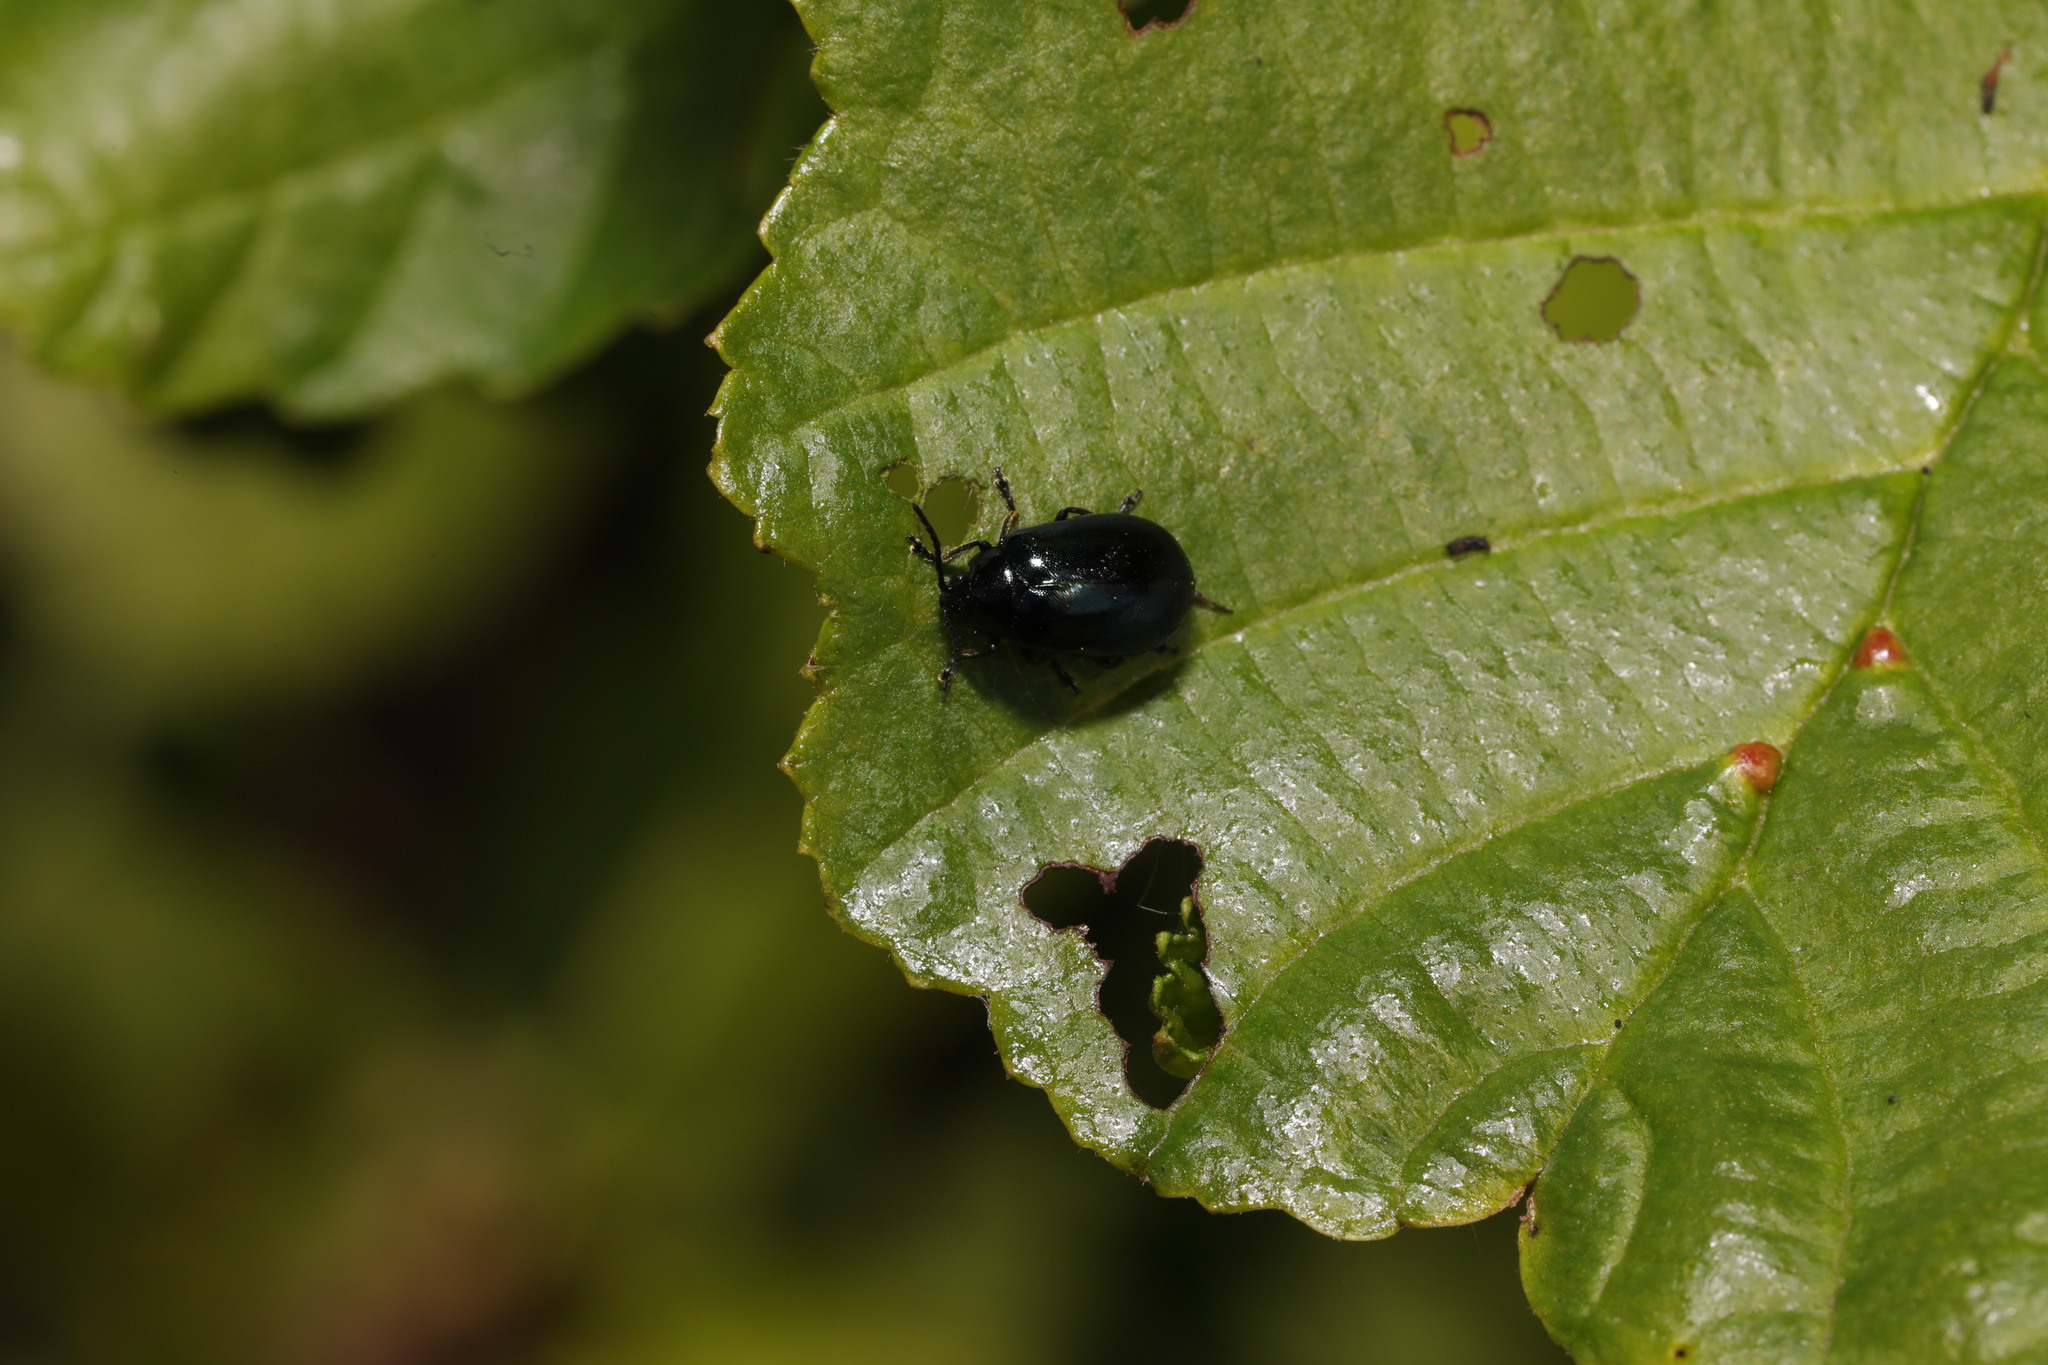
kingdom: Animalia
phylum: Arthropoda
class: Insecta
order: Coleoptera
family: Chrysomelidae
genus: Agelastica
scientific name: Agelastica alni
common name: Alder leaf beetle
